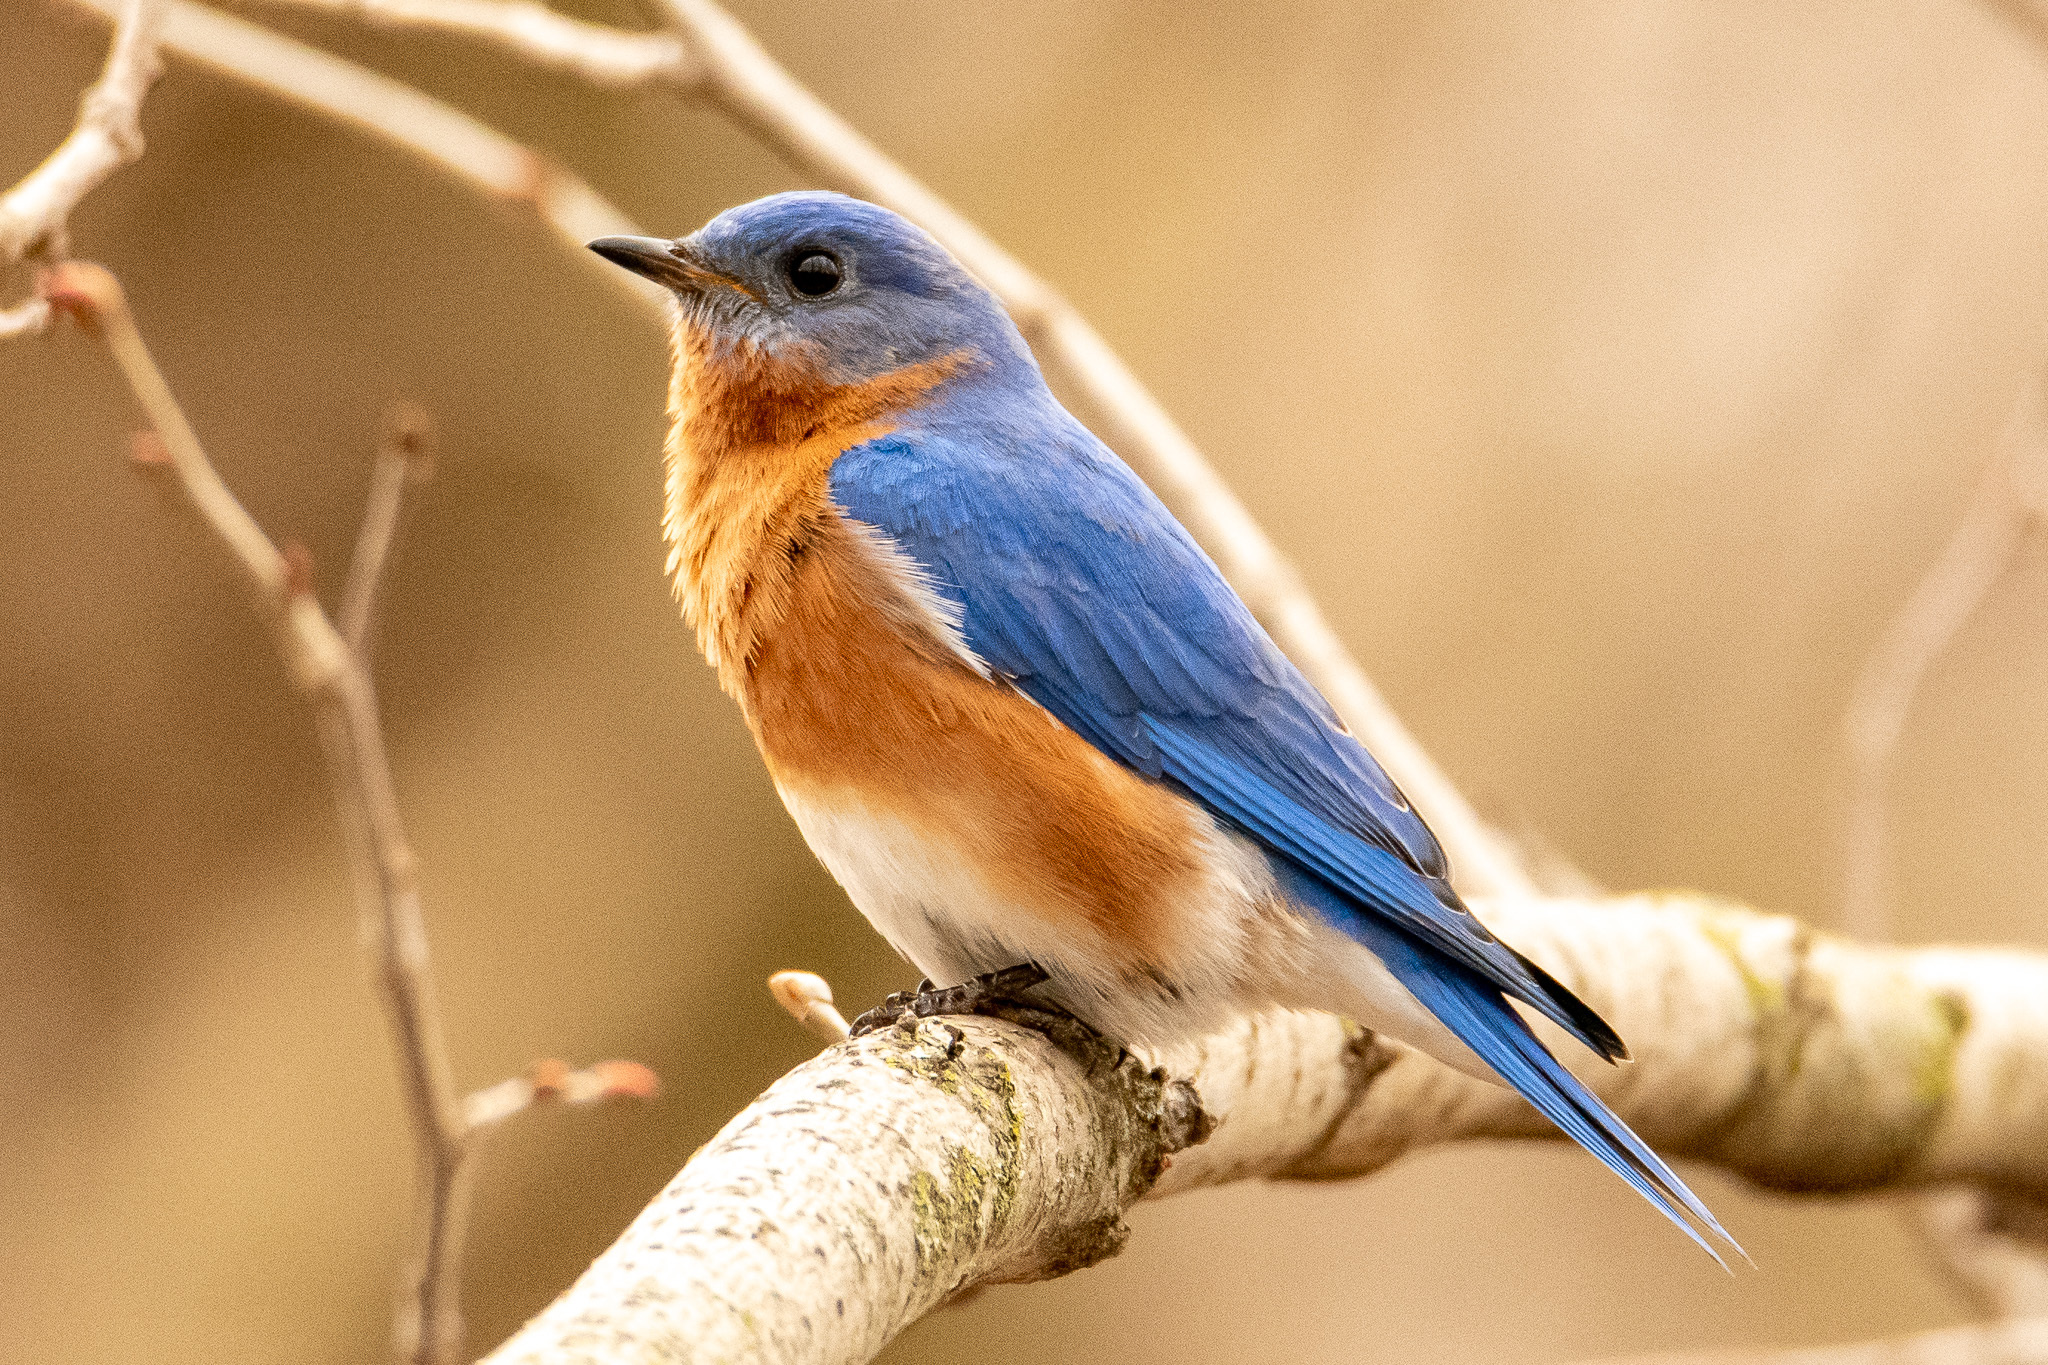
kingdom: Animalia
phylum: Chordata
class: Aves
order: Passeriformes
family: Turdidae
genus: Sialia
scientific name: Sialia sialis
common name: Eastern bluebird
